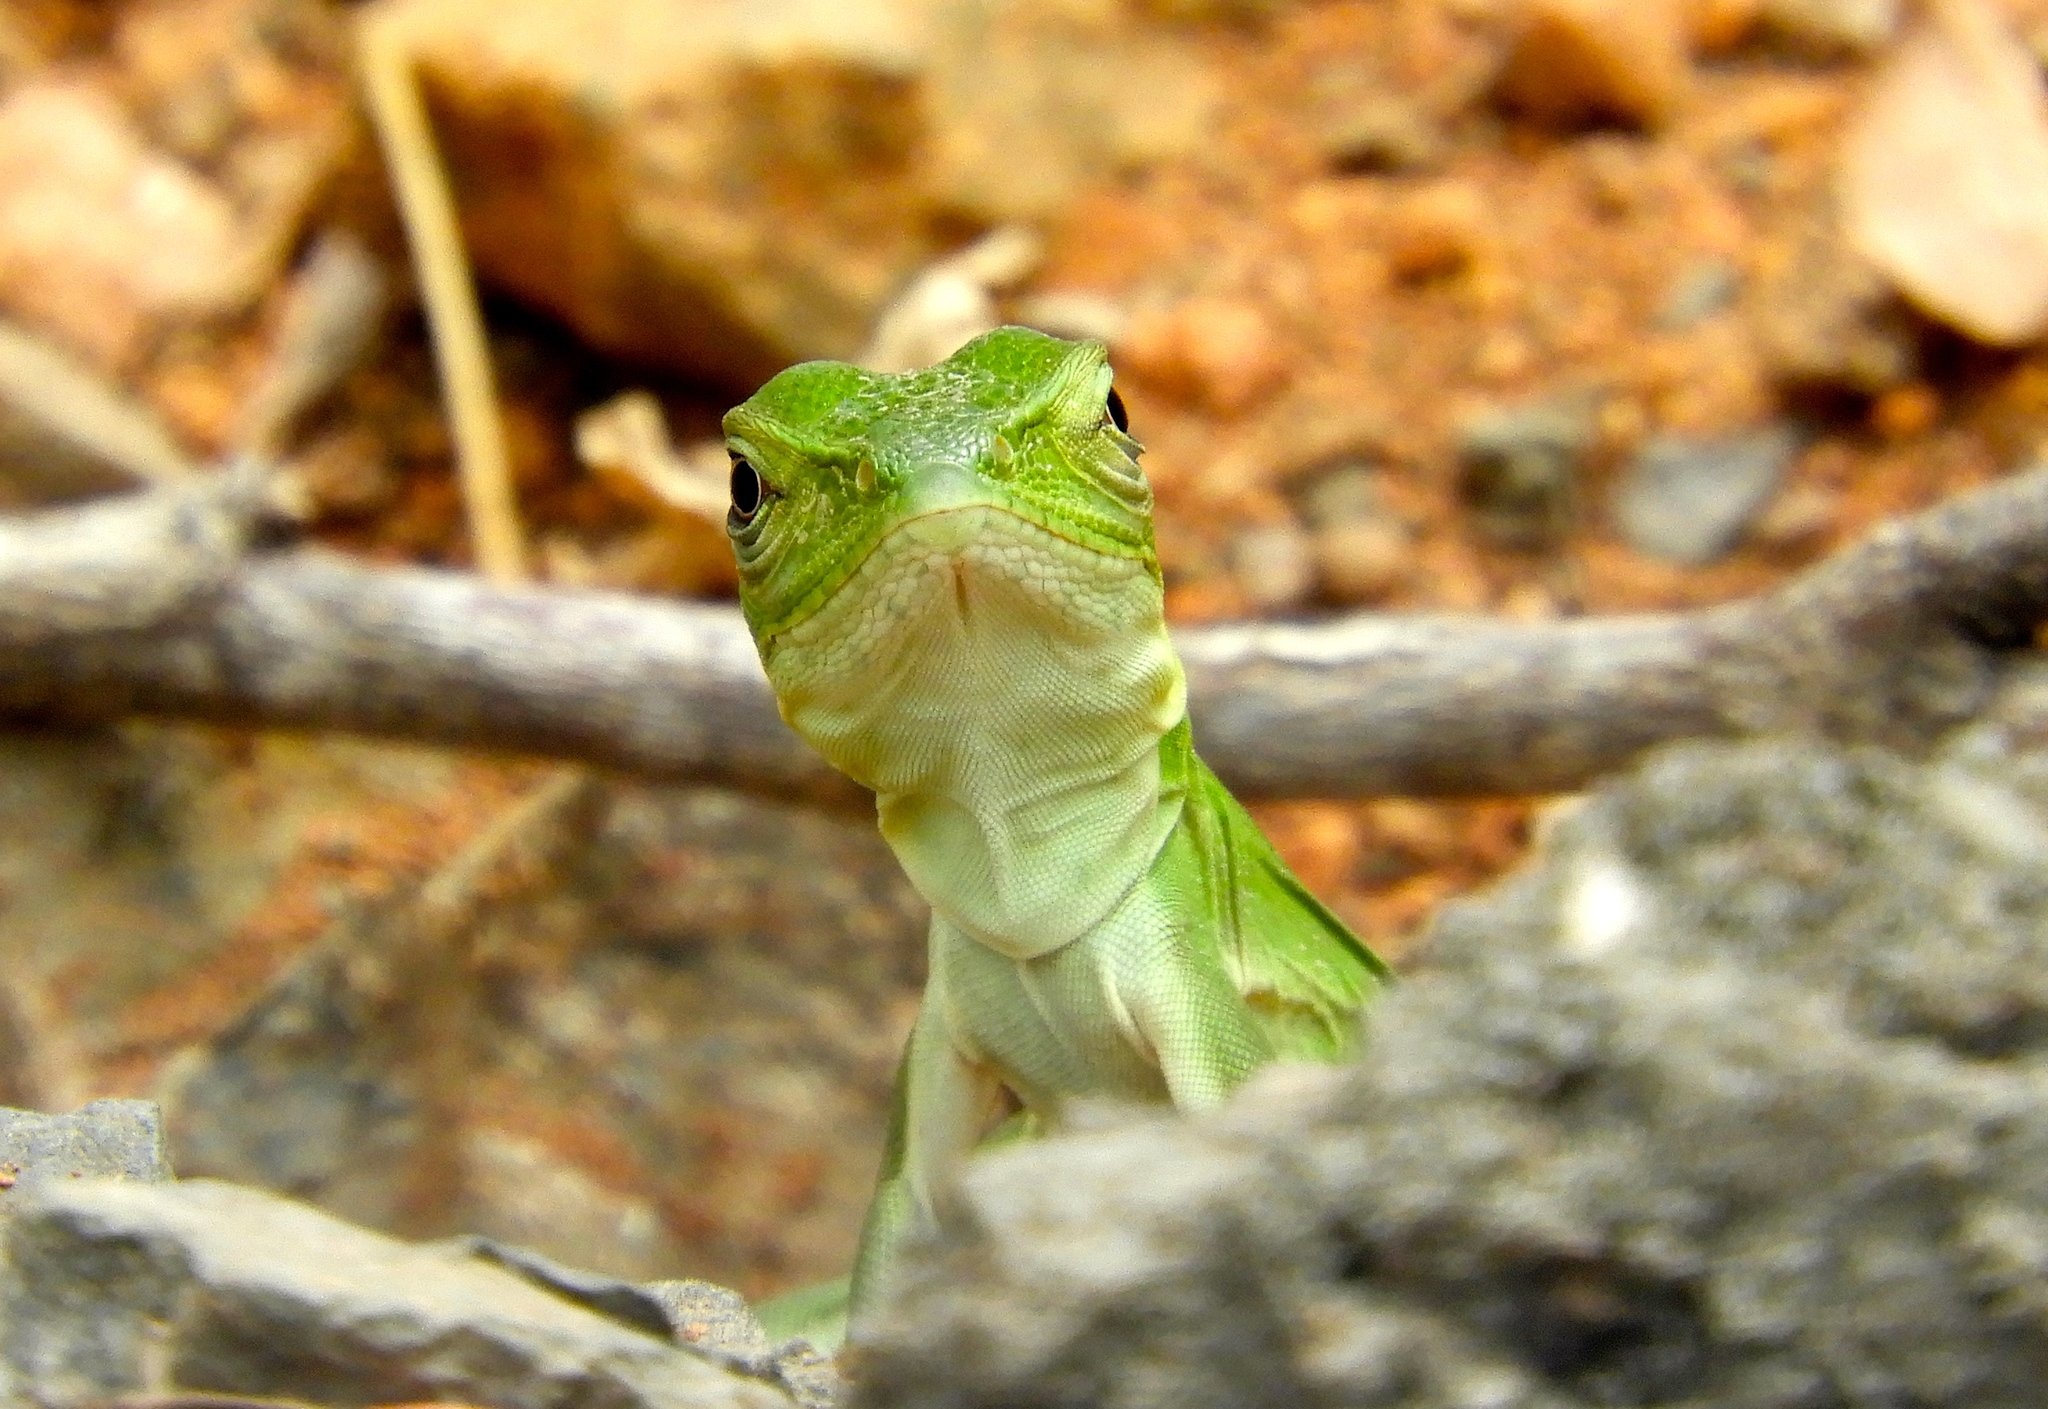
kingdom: Animalia
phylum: Chordata
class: Squamata
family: Iguanidae
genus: Ctenosaura
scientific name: Ctenosaura pectinata
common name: Guerreran spiny-tailed iguana
